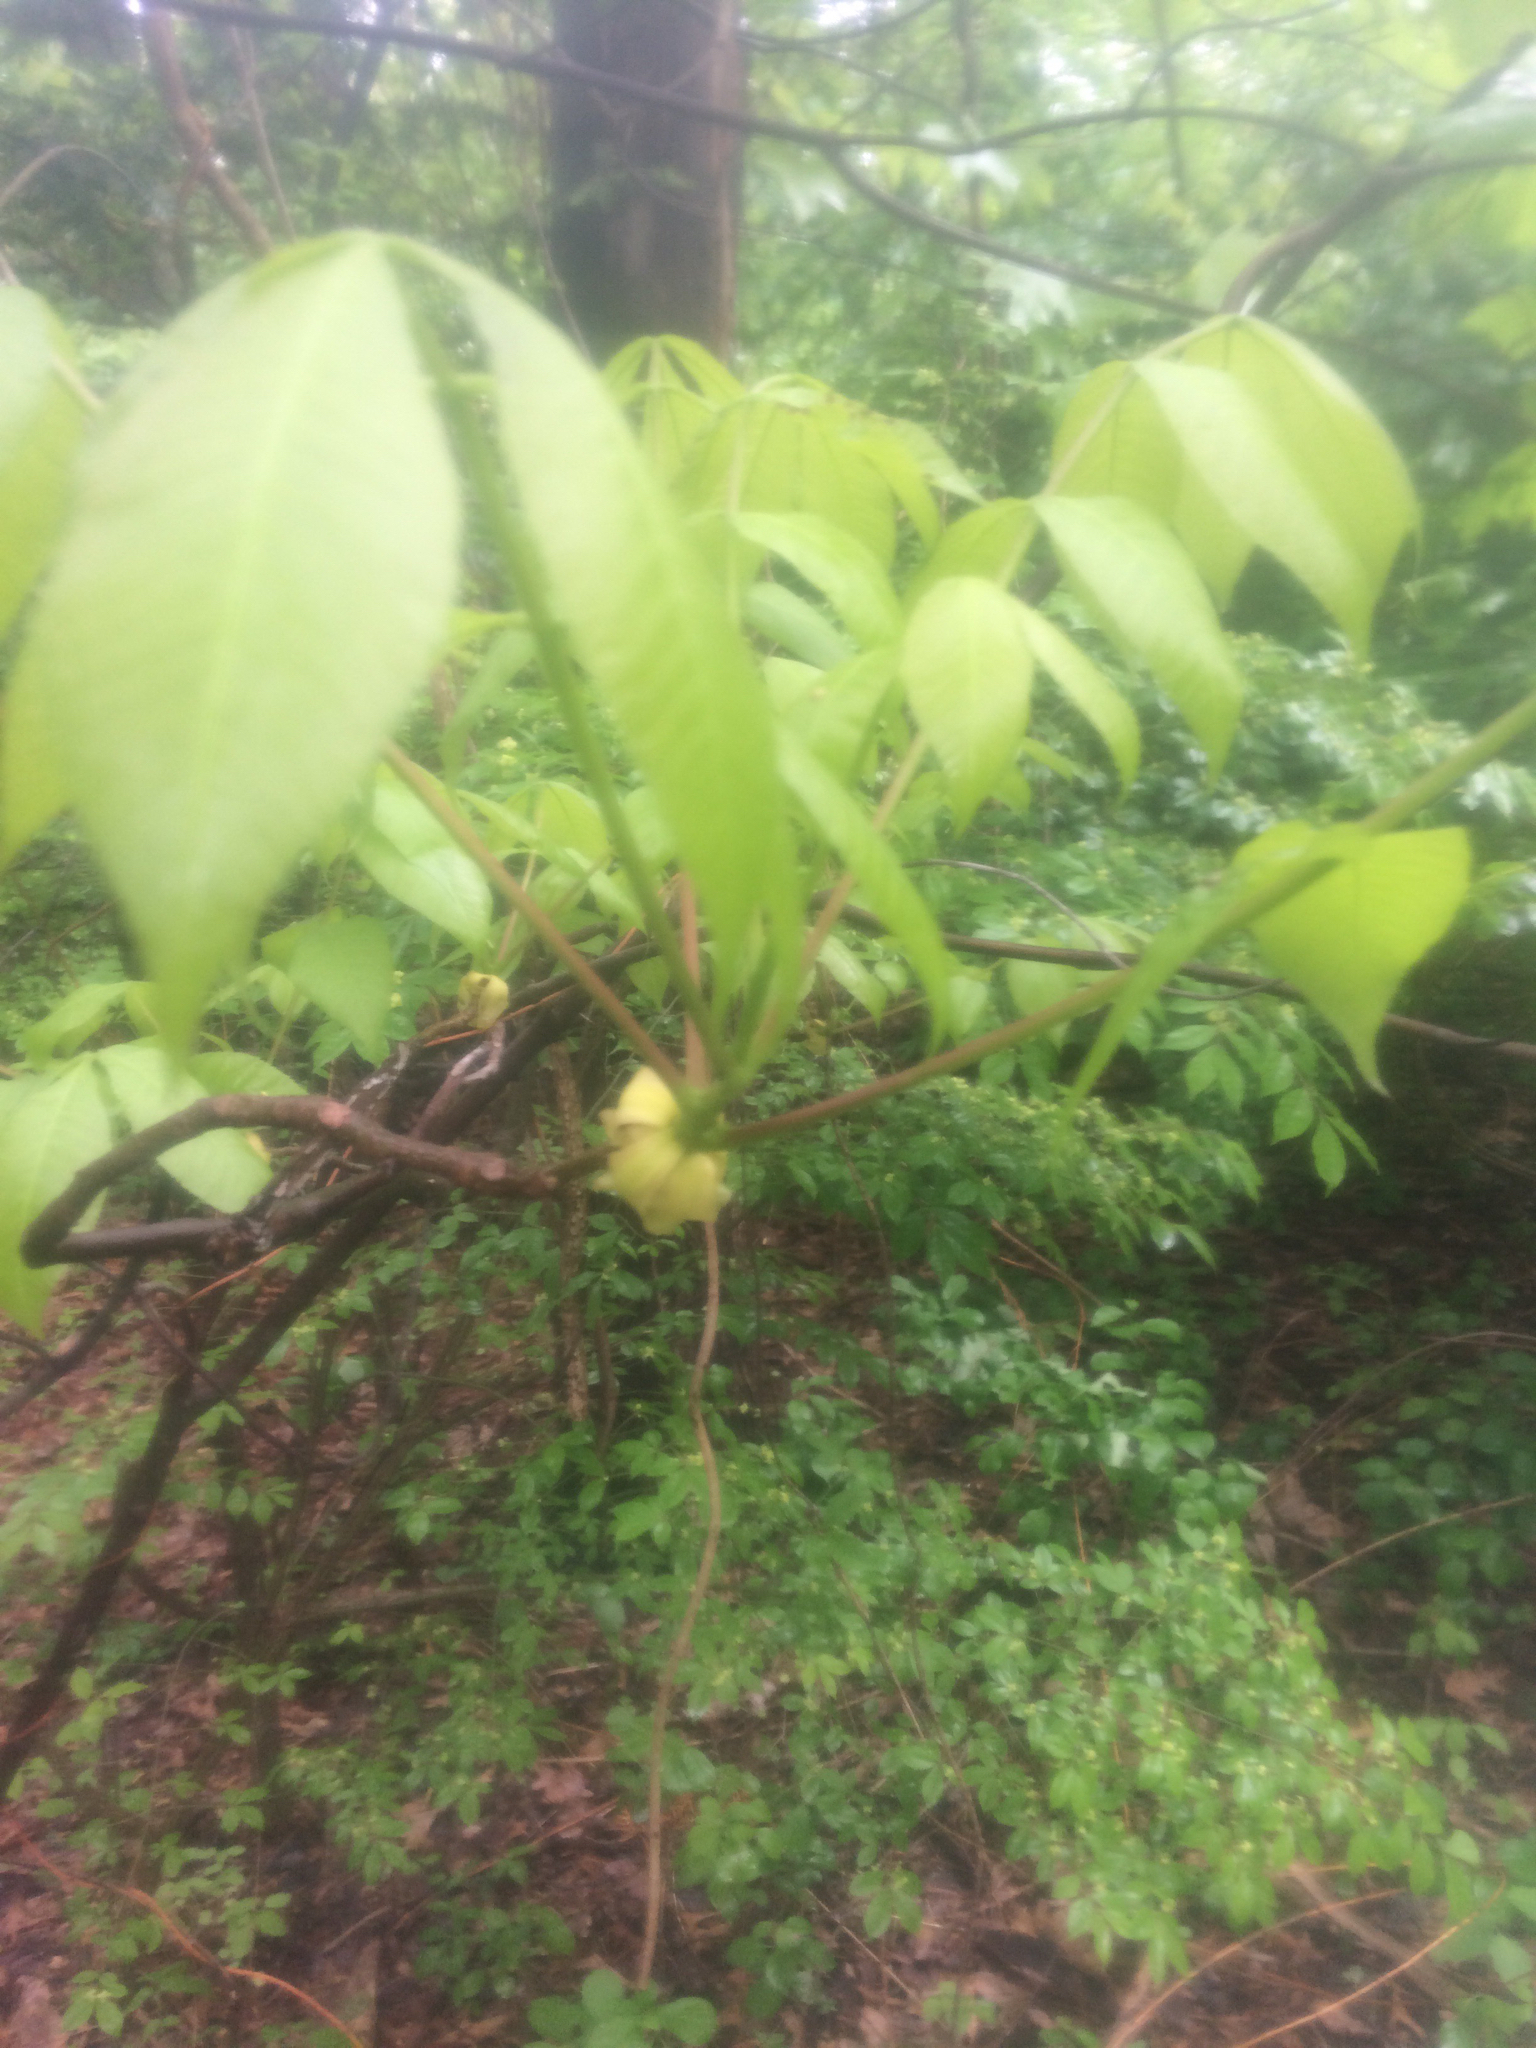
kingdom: Plantae
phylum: Tracheophyta
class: Magnoliopsida
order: Fagales
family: Juglandaceae
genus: Carya
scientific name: Carya ovata
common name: Shagbark hickory
